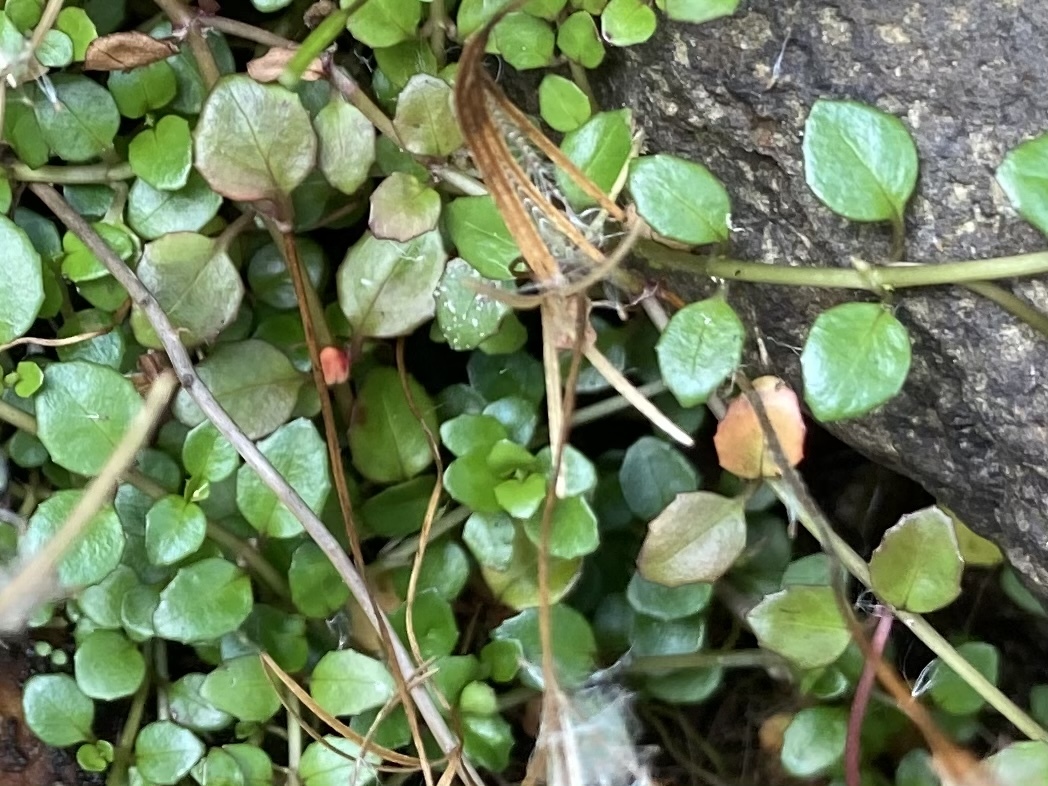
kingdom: Plantae
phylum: Tracheophyta
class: Magnoliopsida
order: Myrtales
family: Onagraceae
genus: Epilobium
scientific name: Epilobium brunnescens
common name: New zealand willowherb
